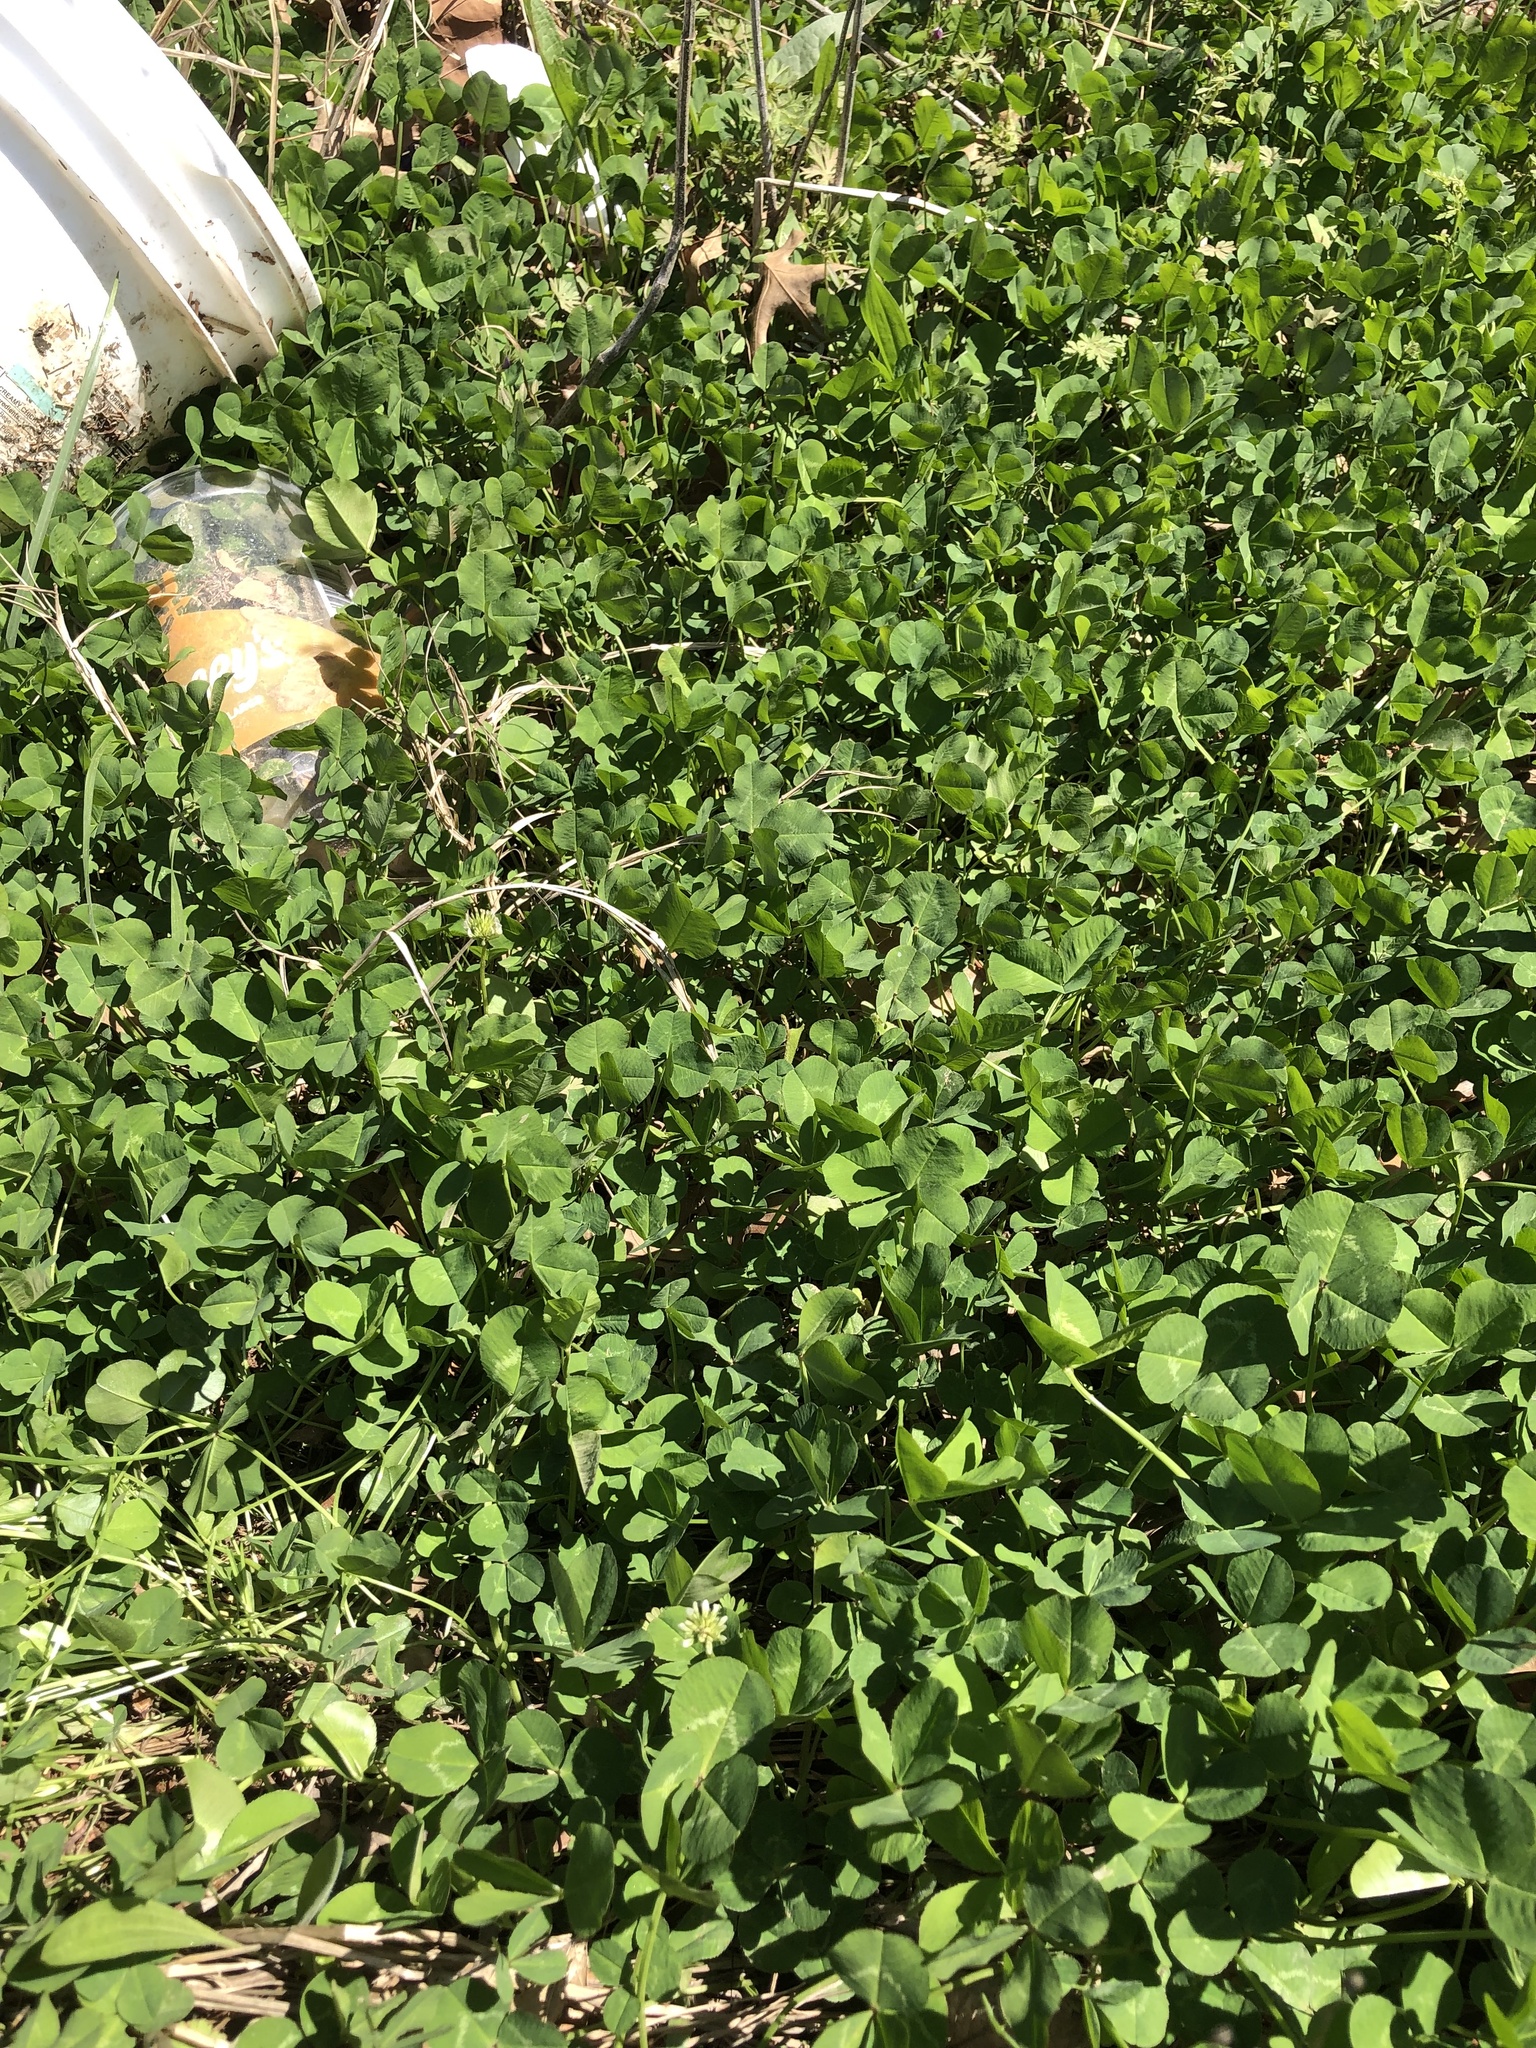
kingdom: Plantae
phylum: Tracheophyta
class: Magnoliopsida
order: Fabales
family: Fabaceae
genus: Trifolium
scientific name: Trifolium repens
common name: White clover
